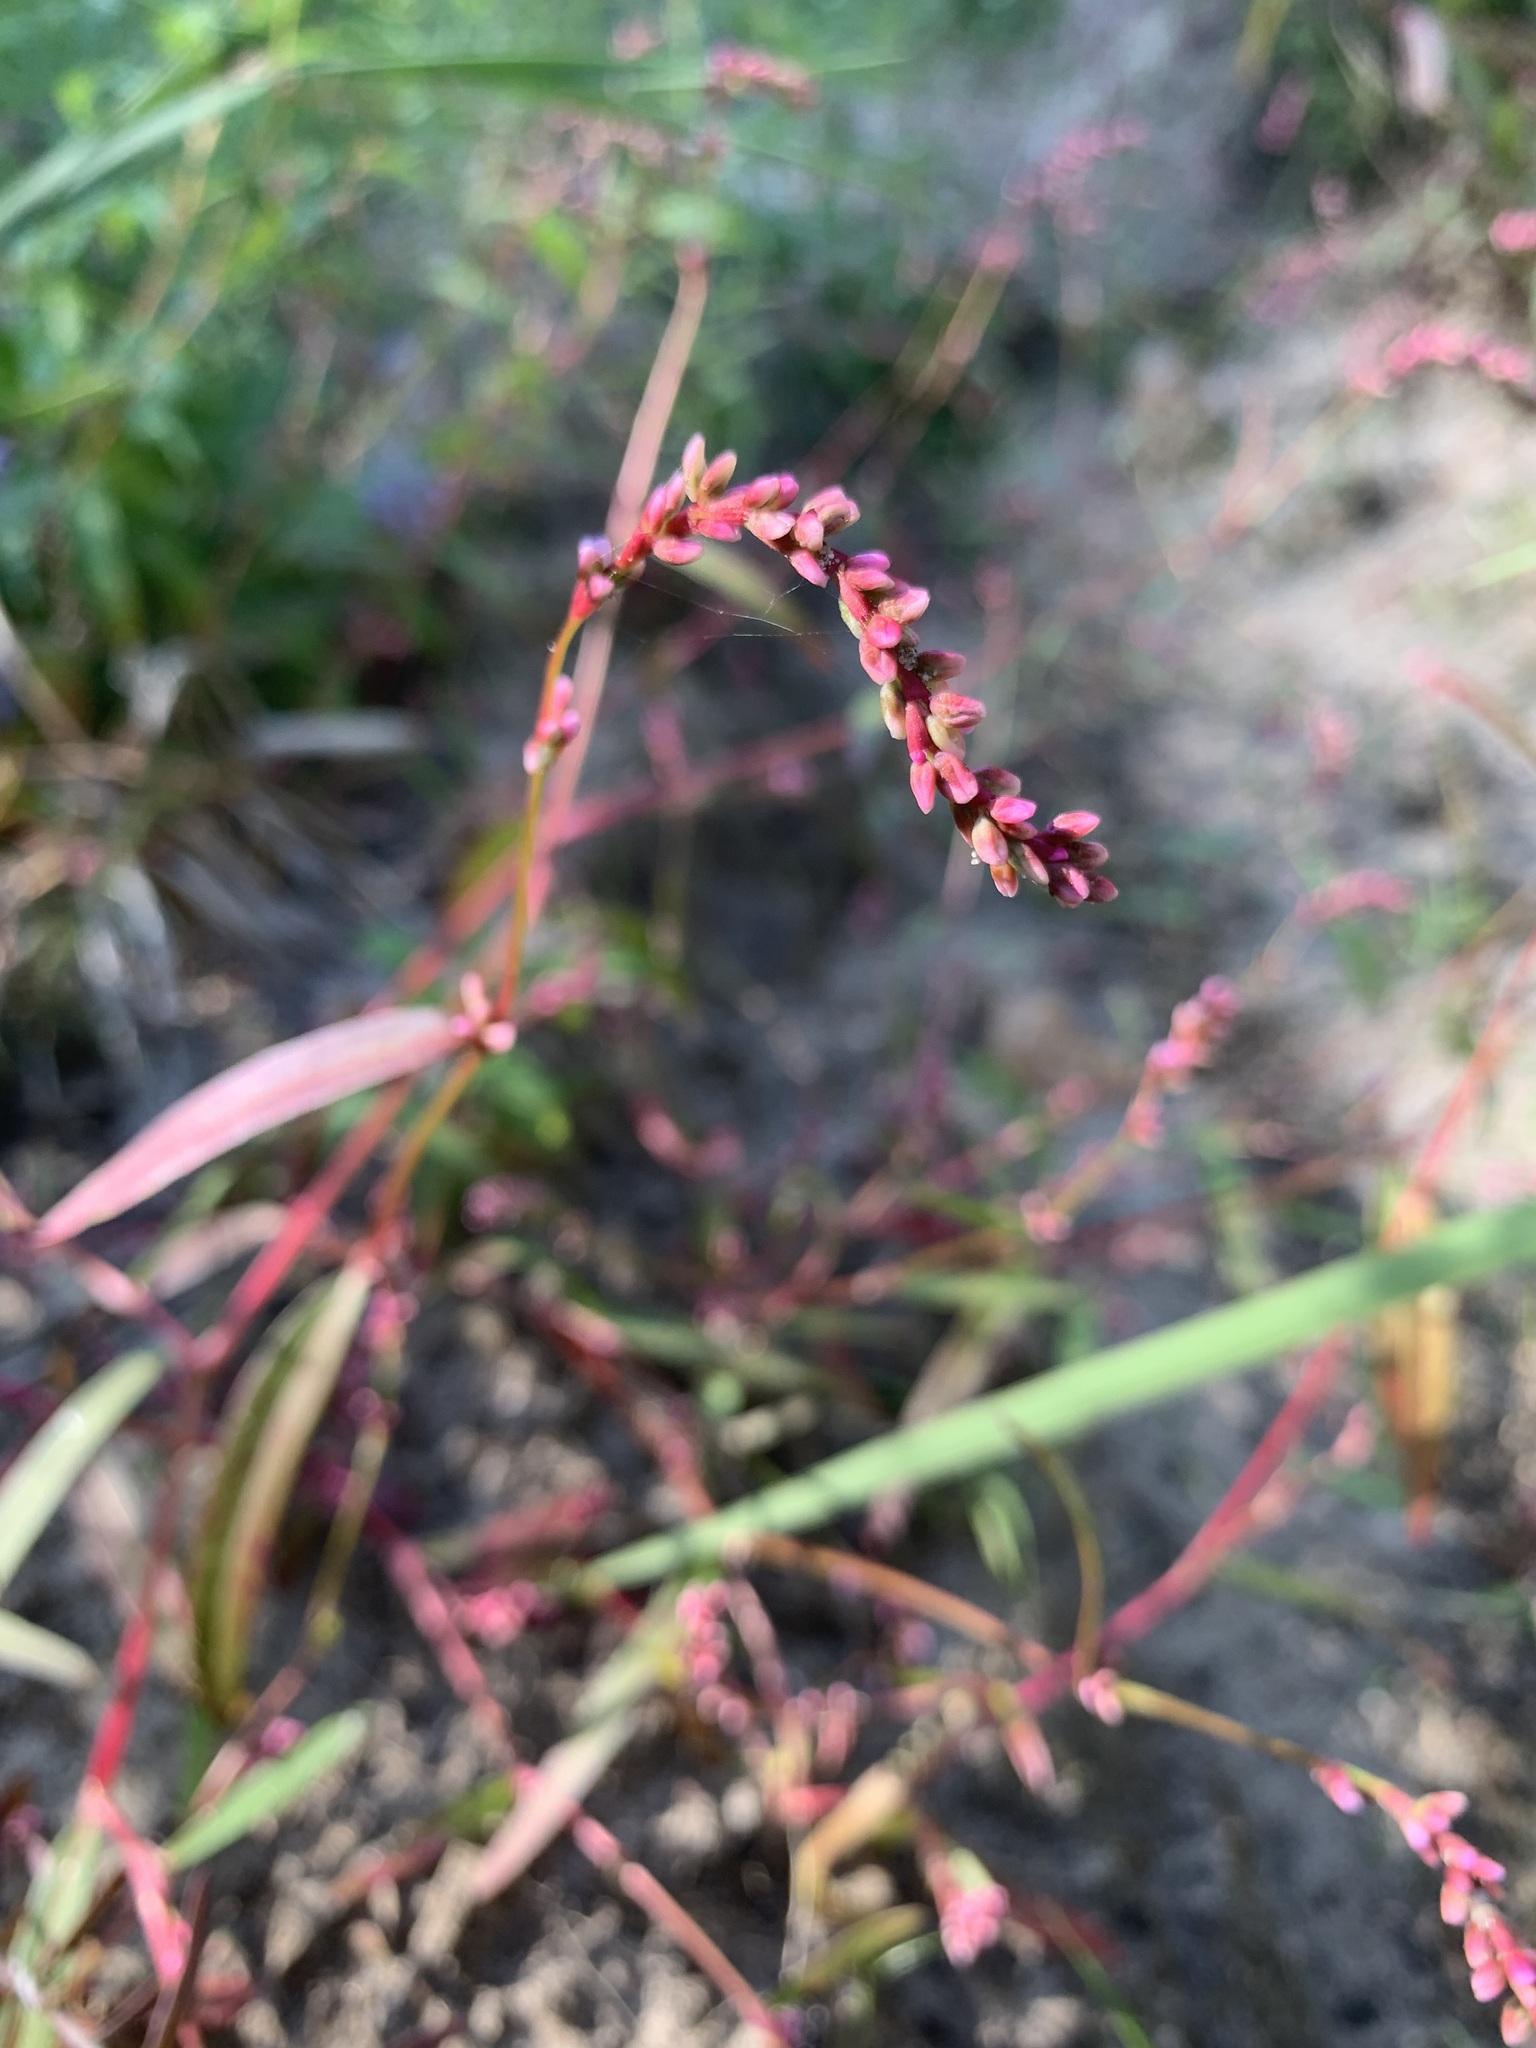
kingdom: Plantae
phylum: Tracheophyta
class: Magnoliopsida
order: Caryophyllales
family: Polygonaceae
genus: Persicaria
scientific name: Persicaria minor
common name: Small water-pepper
